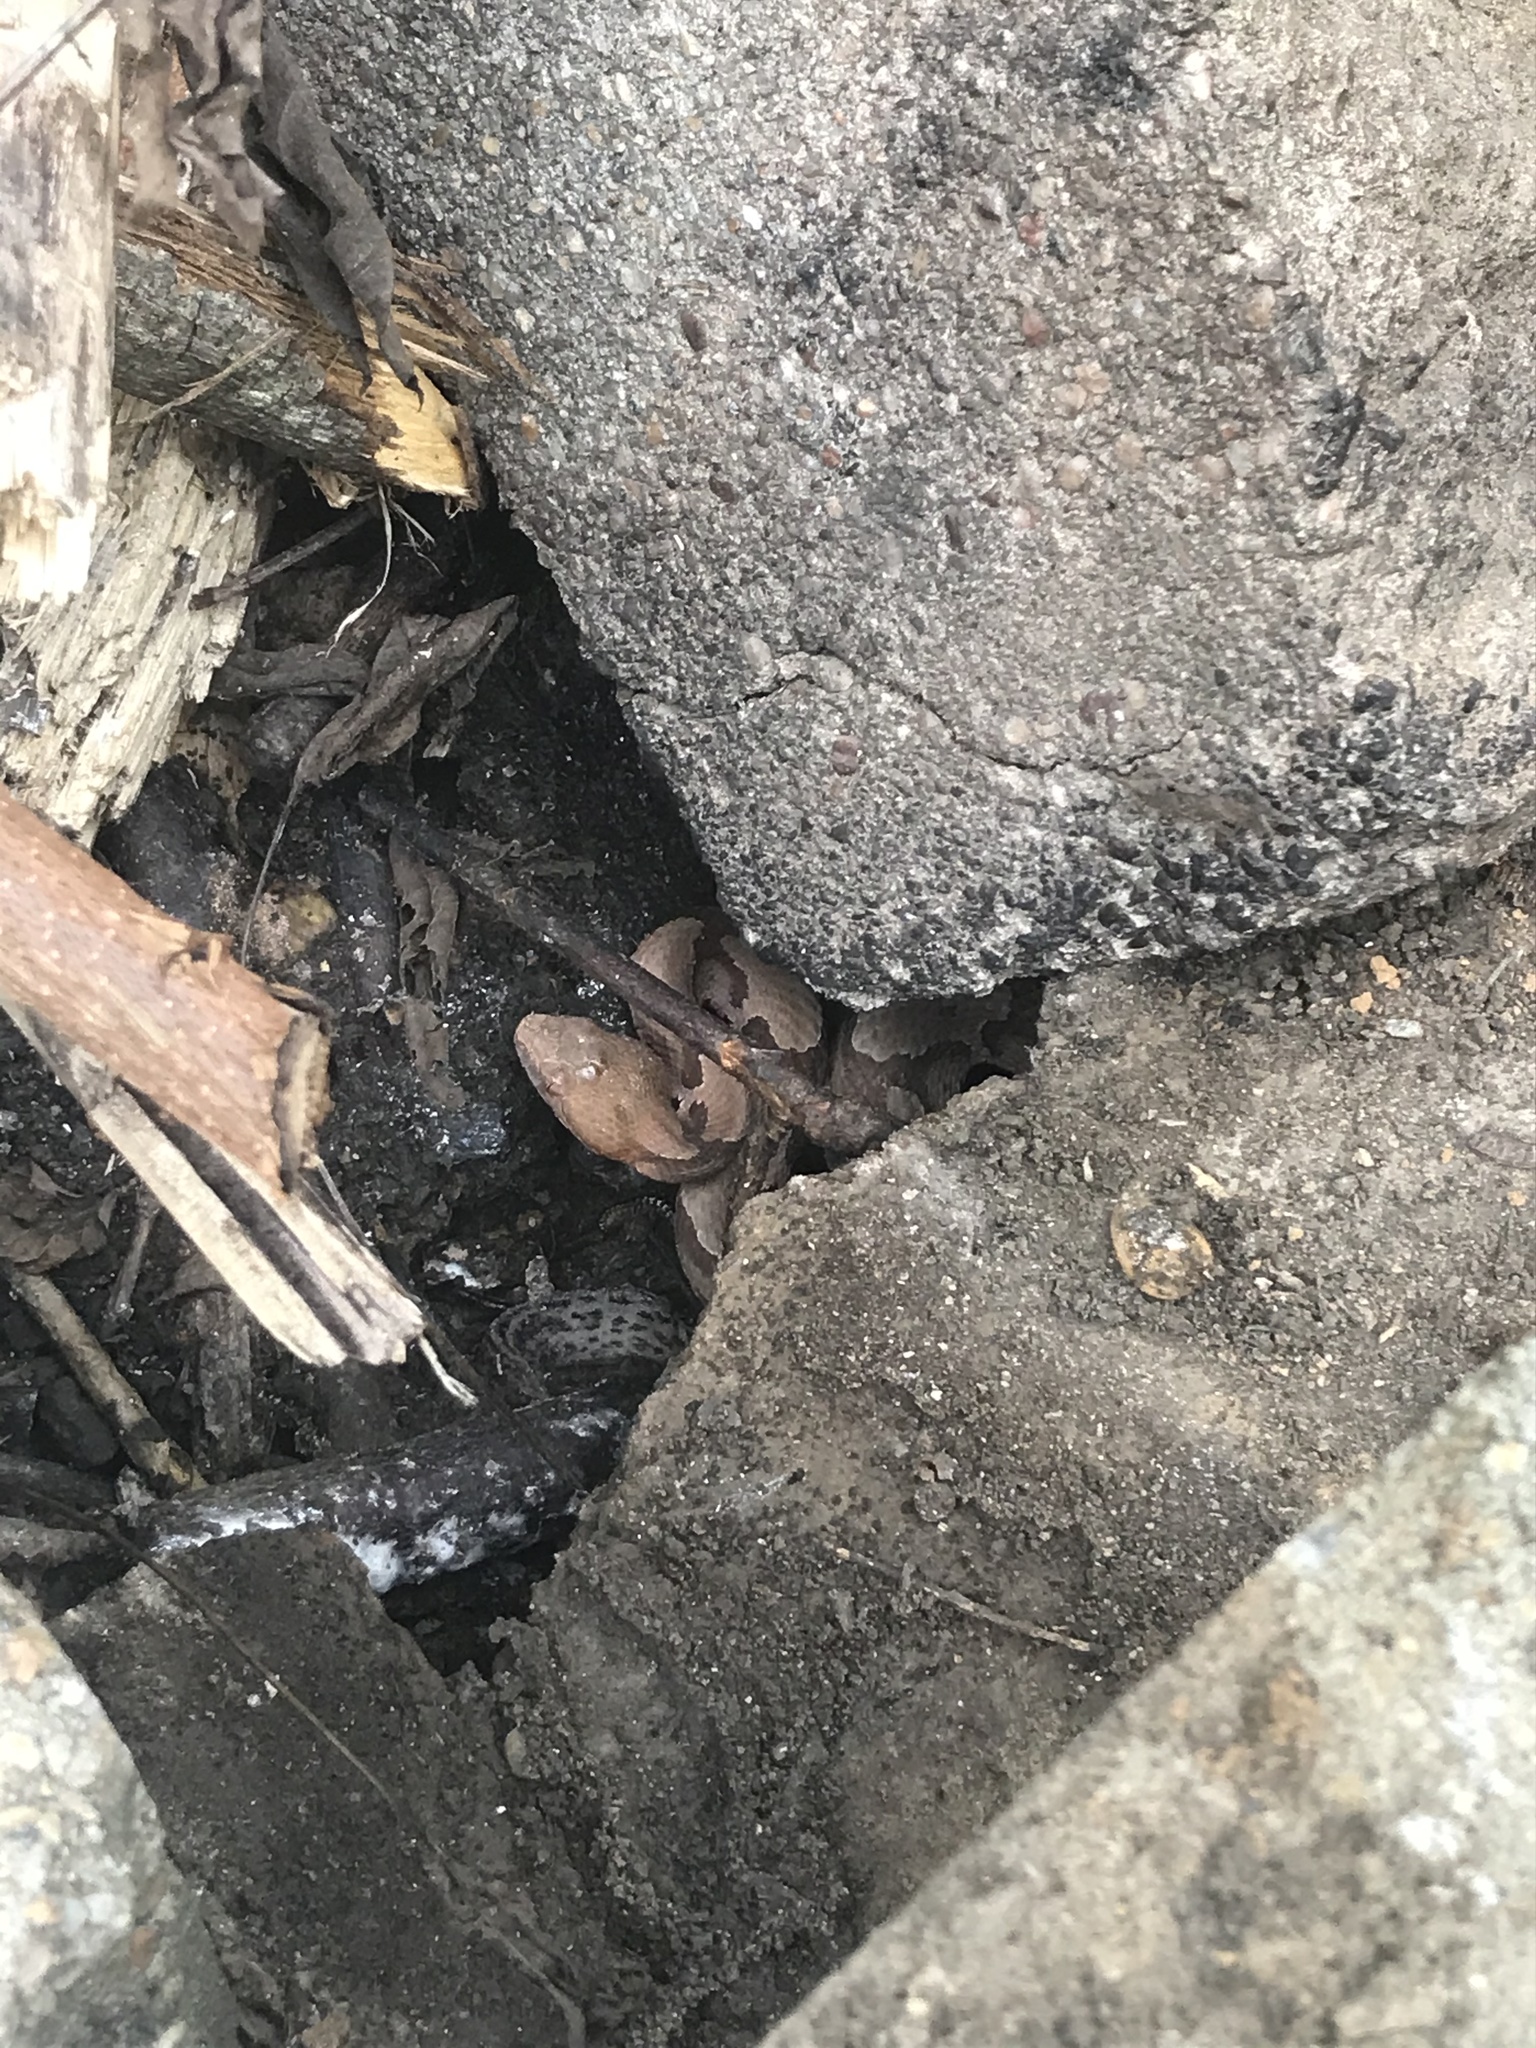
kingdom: Animalia
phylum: Chordata
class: Squamata
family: Viperidae
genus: Agkistrodon
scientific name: Agkistrodon contortrix
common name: Northern copperhead
